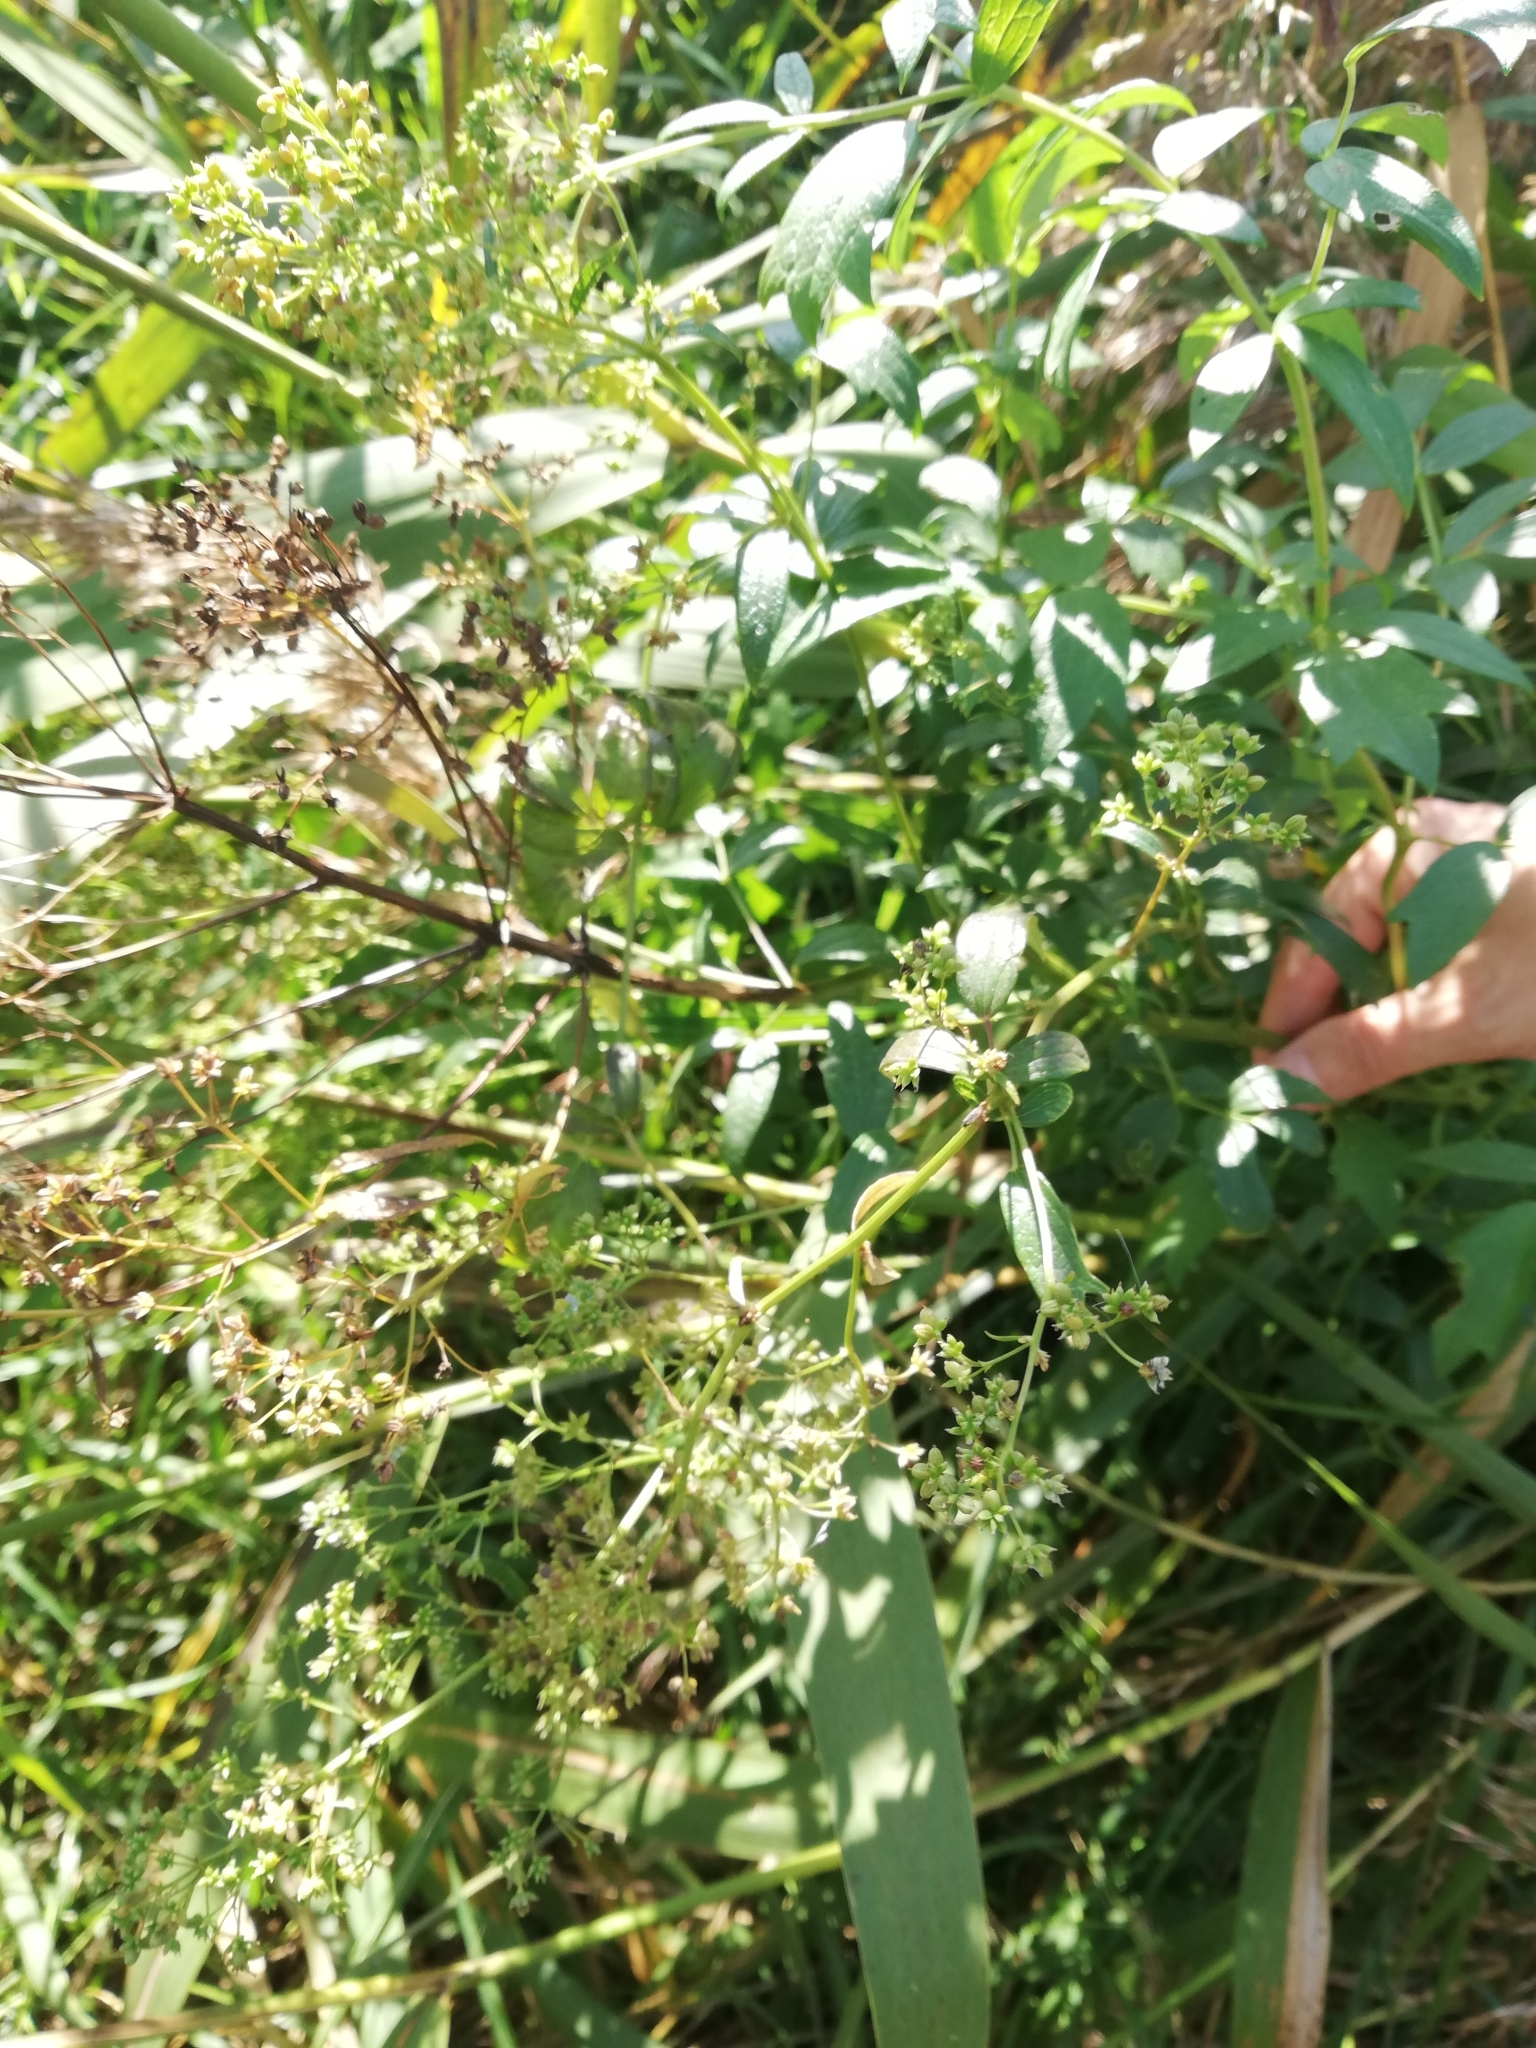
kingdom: Plantae
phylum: Tracheophyta
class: Magnoliopsida
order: Ranunculales
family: Ranunculaceae
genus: Thalictrum
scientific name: Thalictrum flavum
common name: Common meadow-rue
